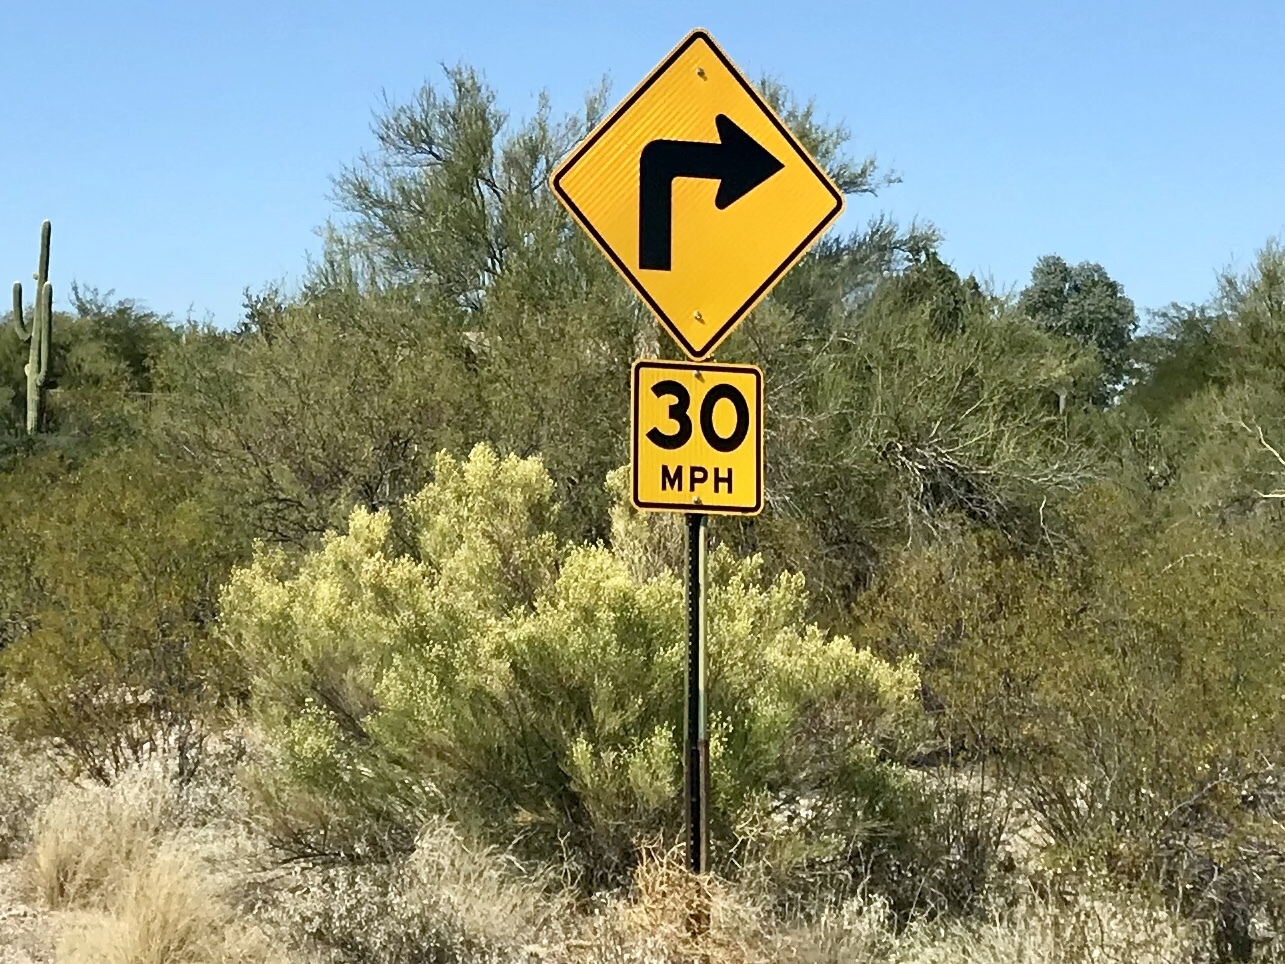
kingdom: Plantae
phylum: Tracheophyta
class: Magnoliopsida
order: Asterales
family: Asteraceae
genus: Baccharis
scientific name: Baccharis sarothroides
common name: Desert-broom
